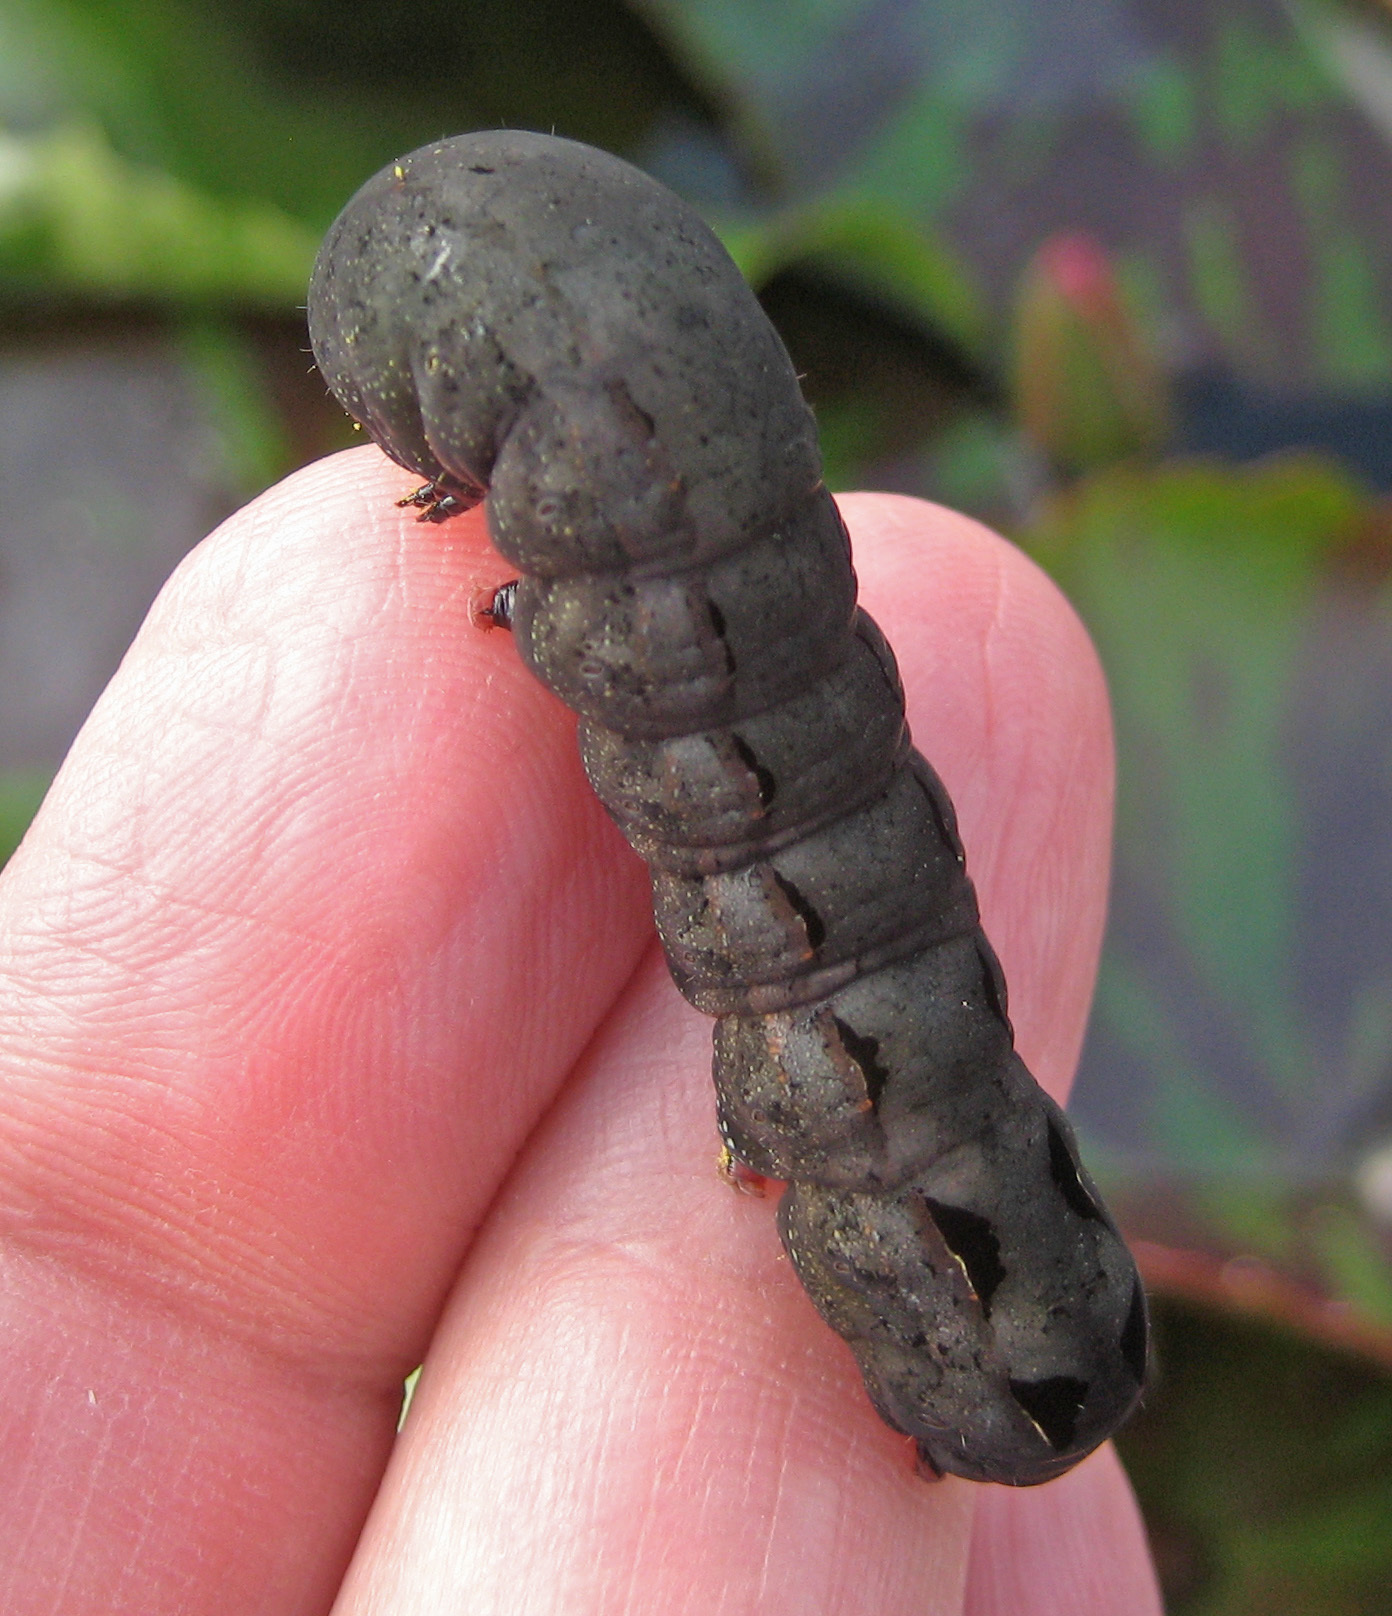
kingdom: Animalia
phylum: Arthropoda
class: Insecta
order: Lepidoptera
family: Noctuidae
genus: Spodoptera
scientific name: Spodoptera latifascia
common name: Velvet armyworm moth
